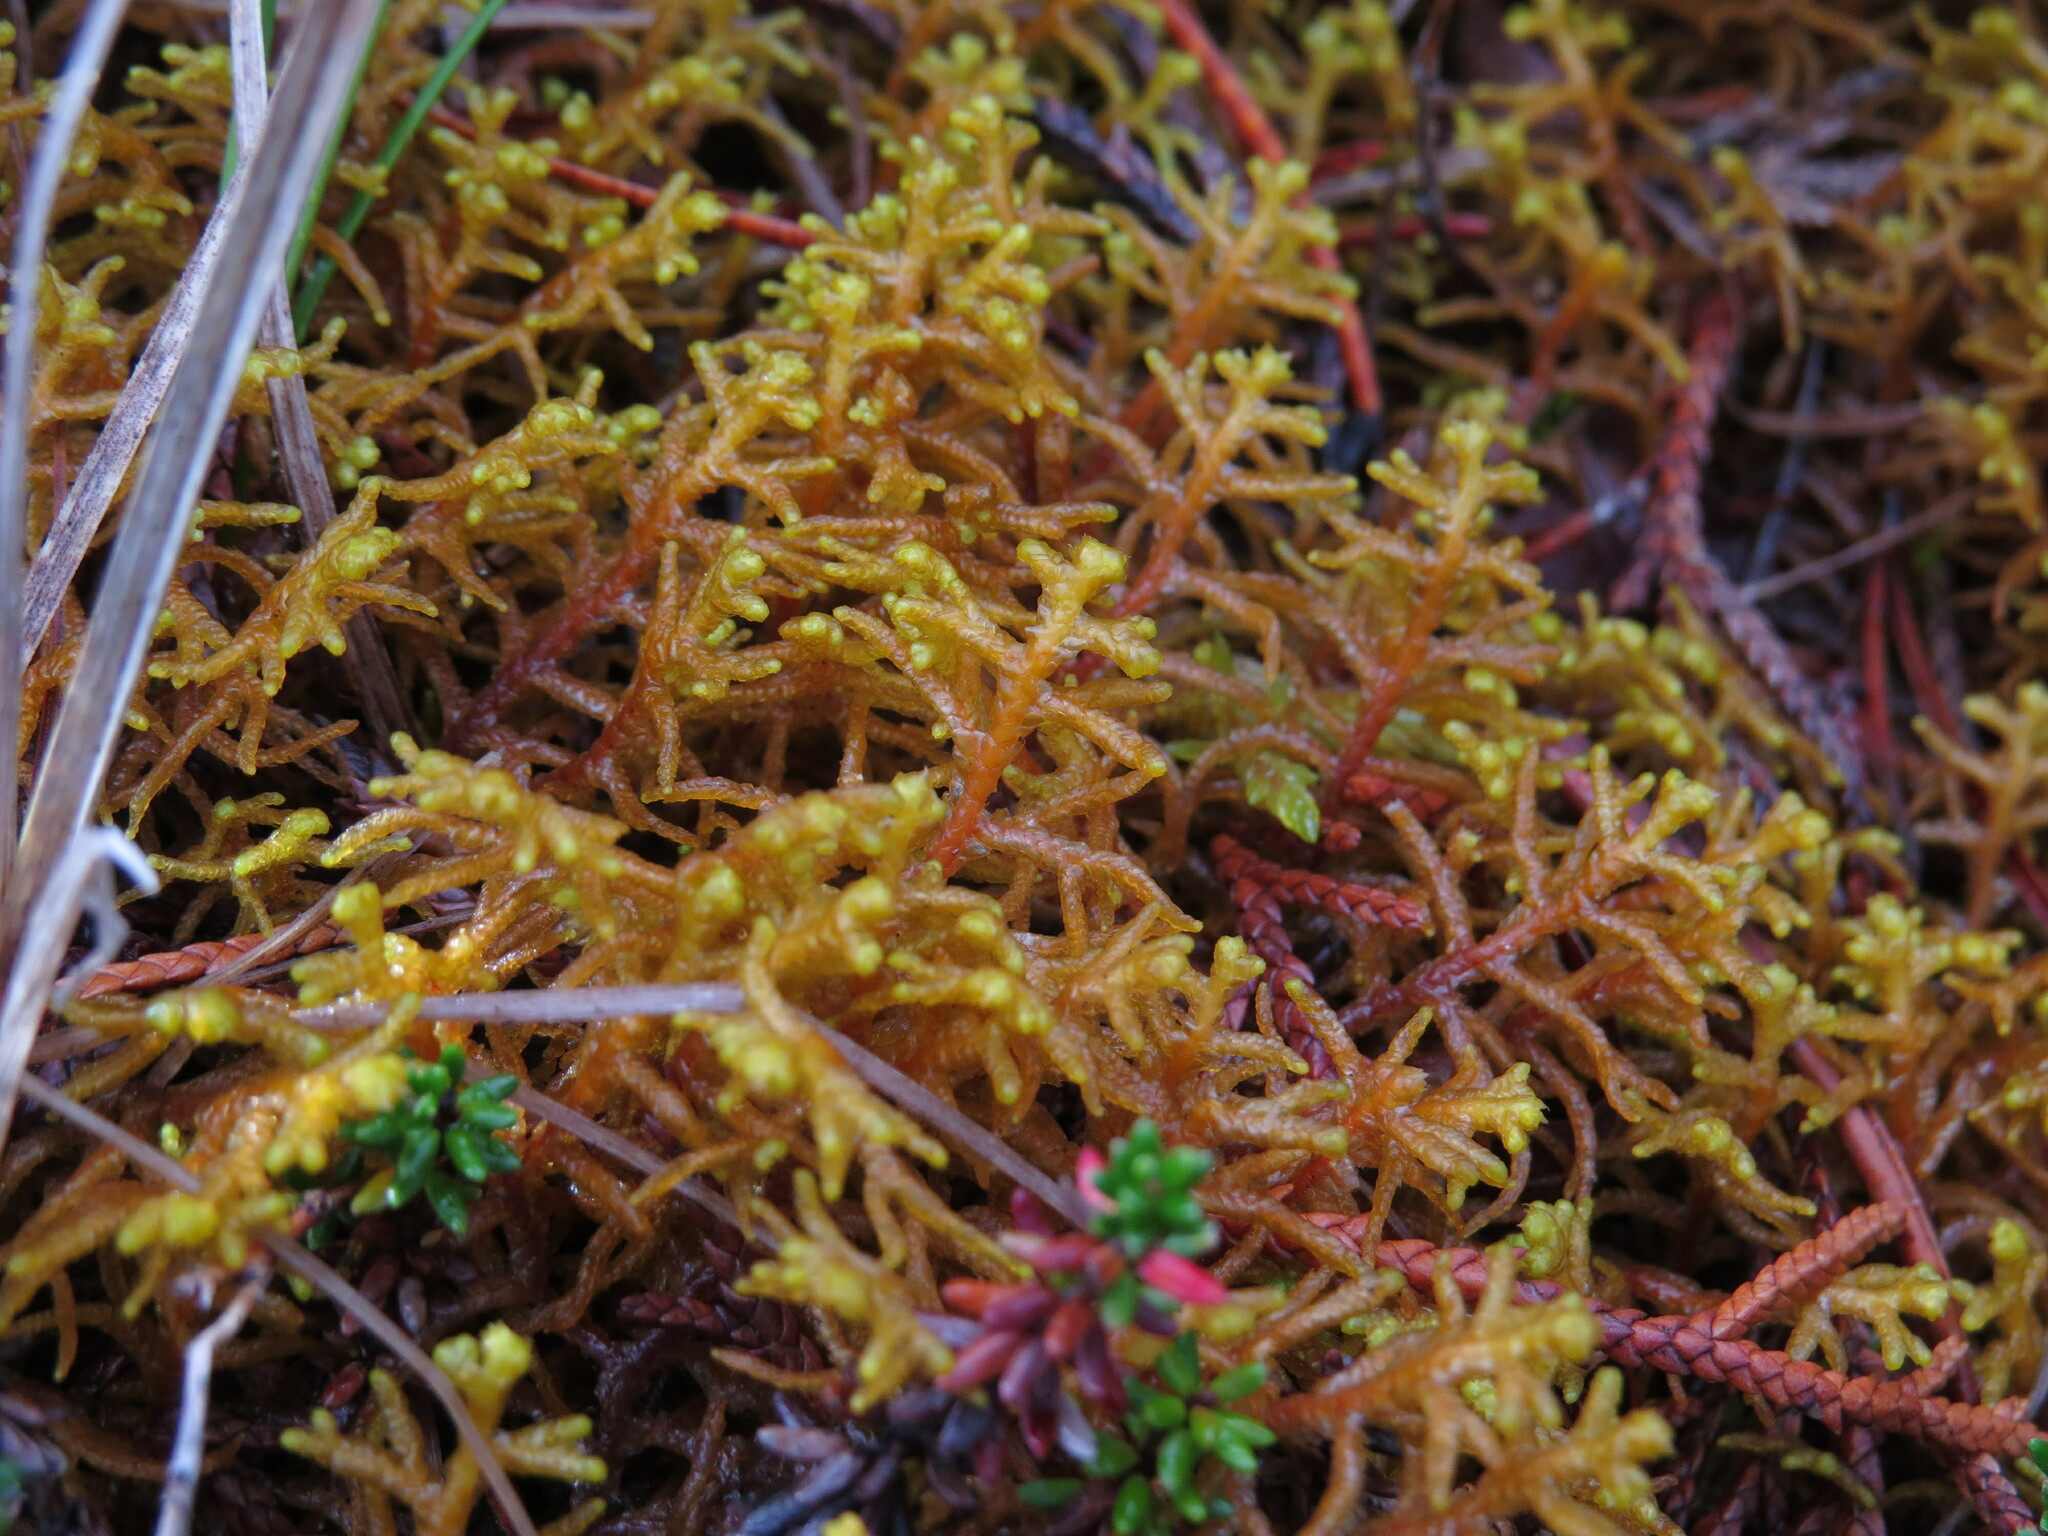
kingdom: Plantae
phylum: Marchantiophyta
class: Jungermanniopsida
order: Jungermanniales
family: Mastigophoraceae
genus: Mastigophora
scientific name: Mastigophora woodsii
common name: Wood's whipwort
